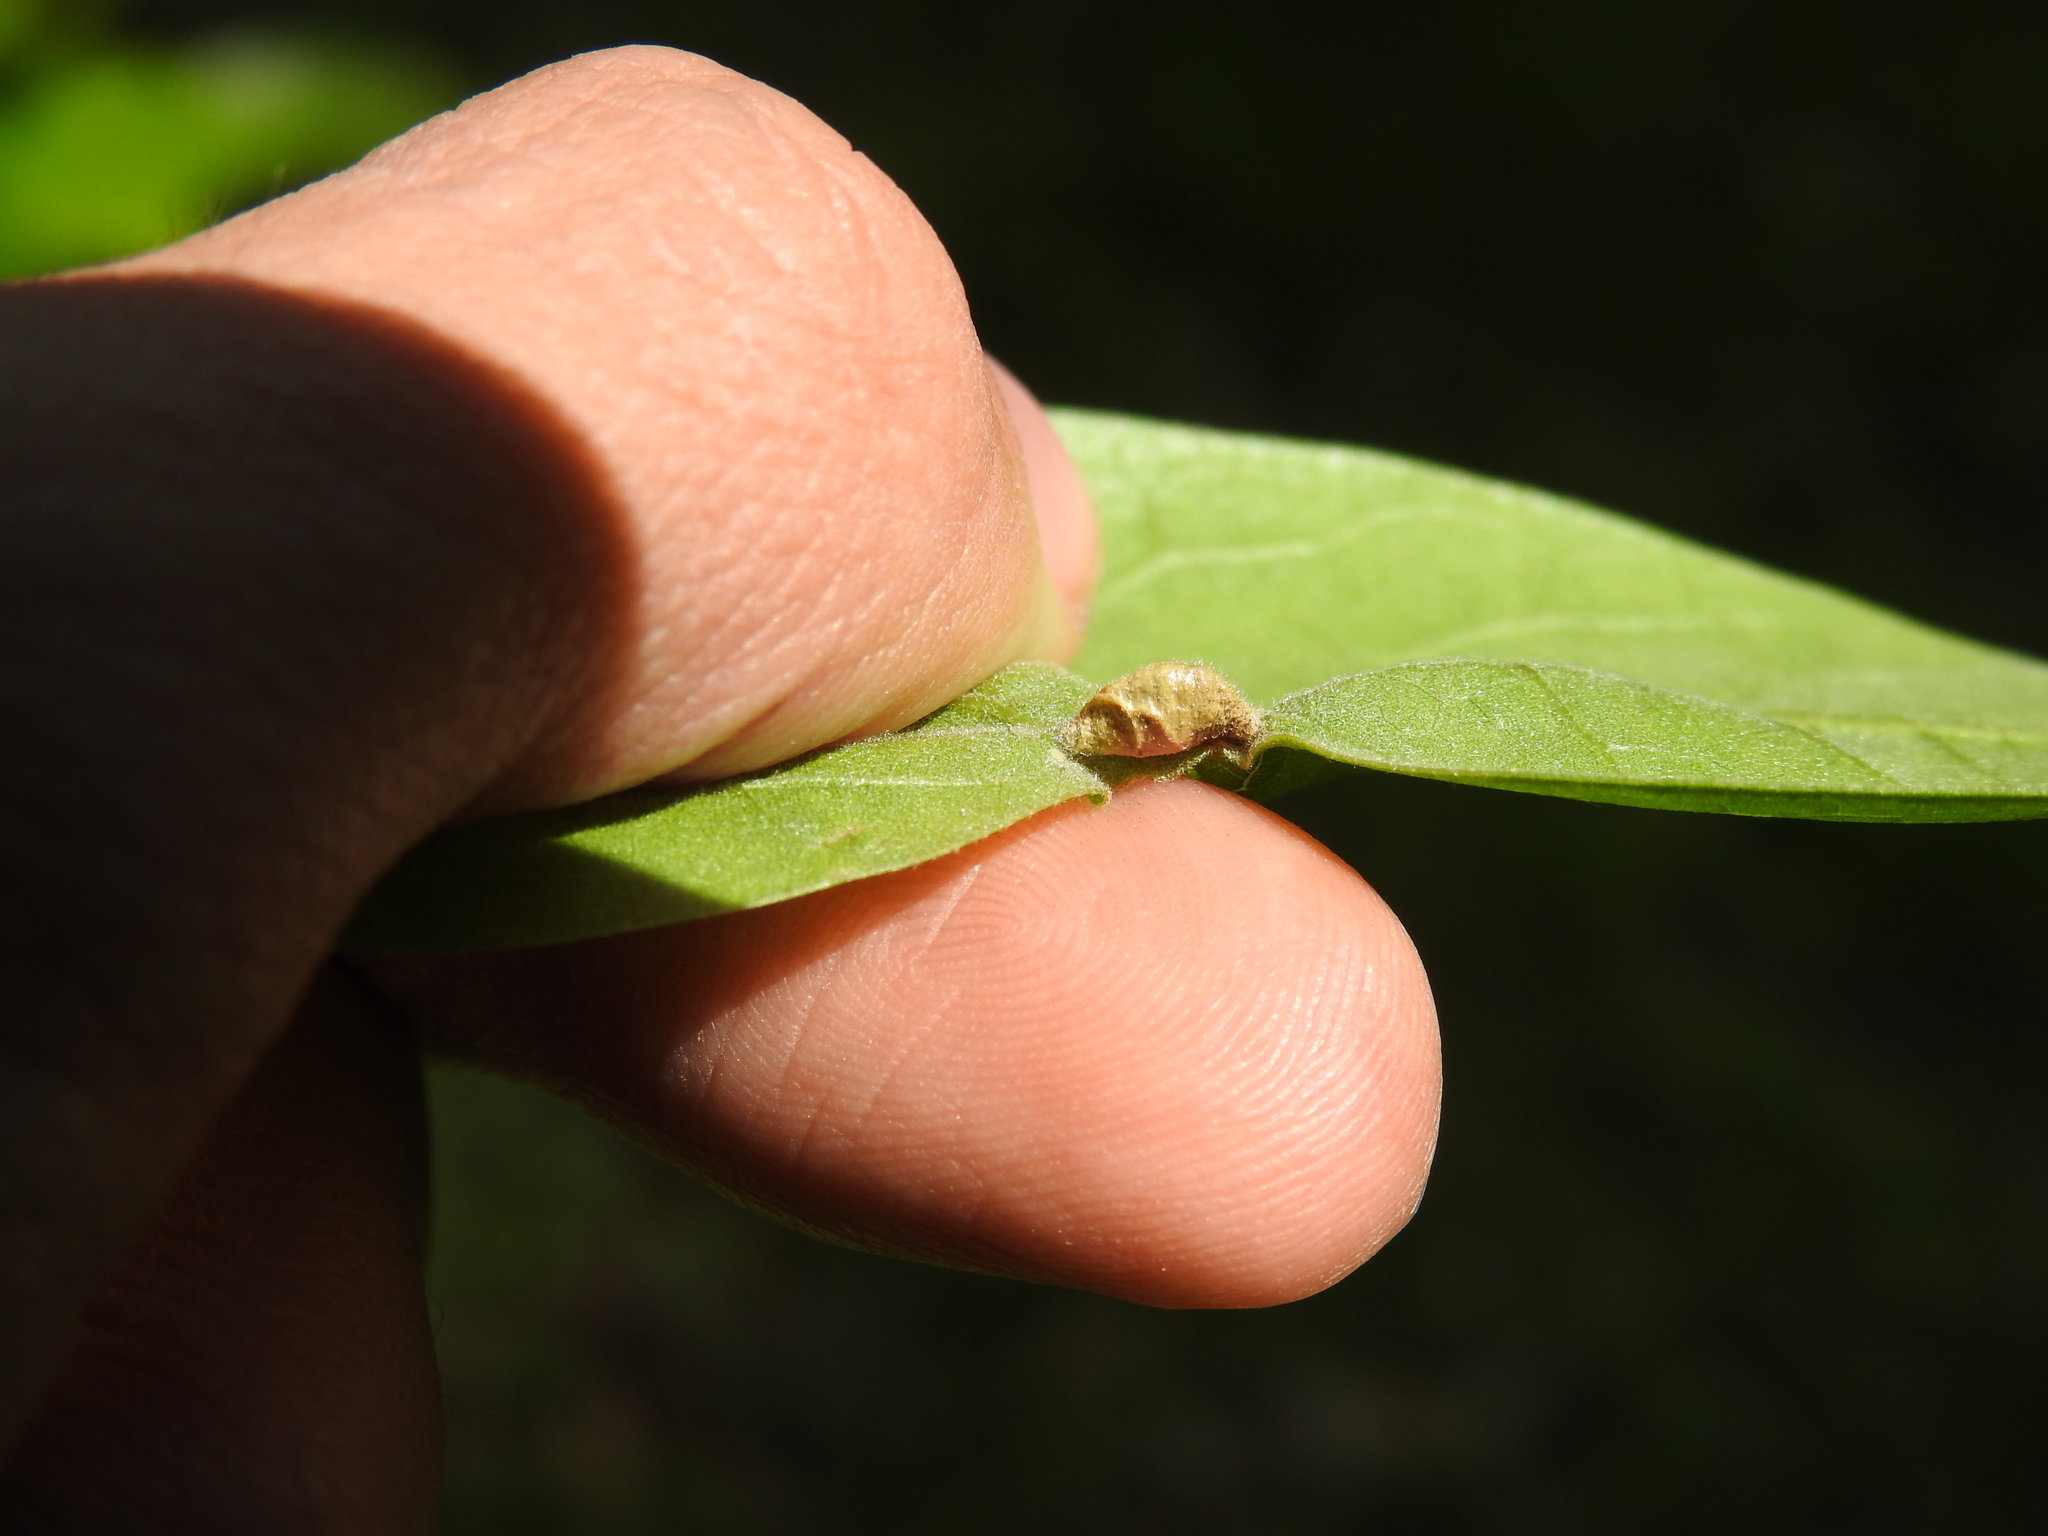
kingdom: Animalia
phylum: Arthropoda
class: Insecta
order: Diptera
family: Cecidomyiidae
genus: Macrodiplosis
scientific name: Macrodiplosis majalis
